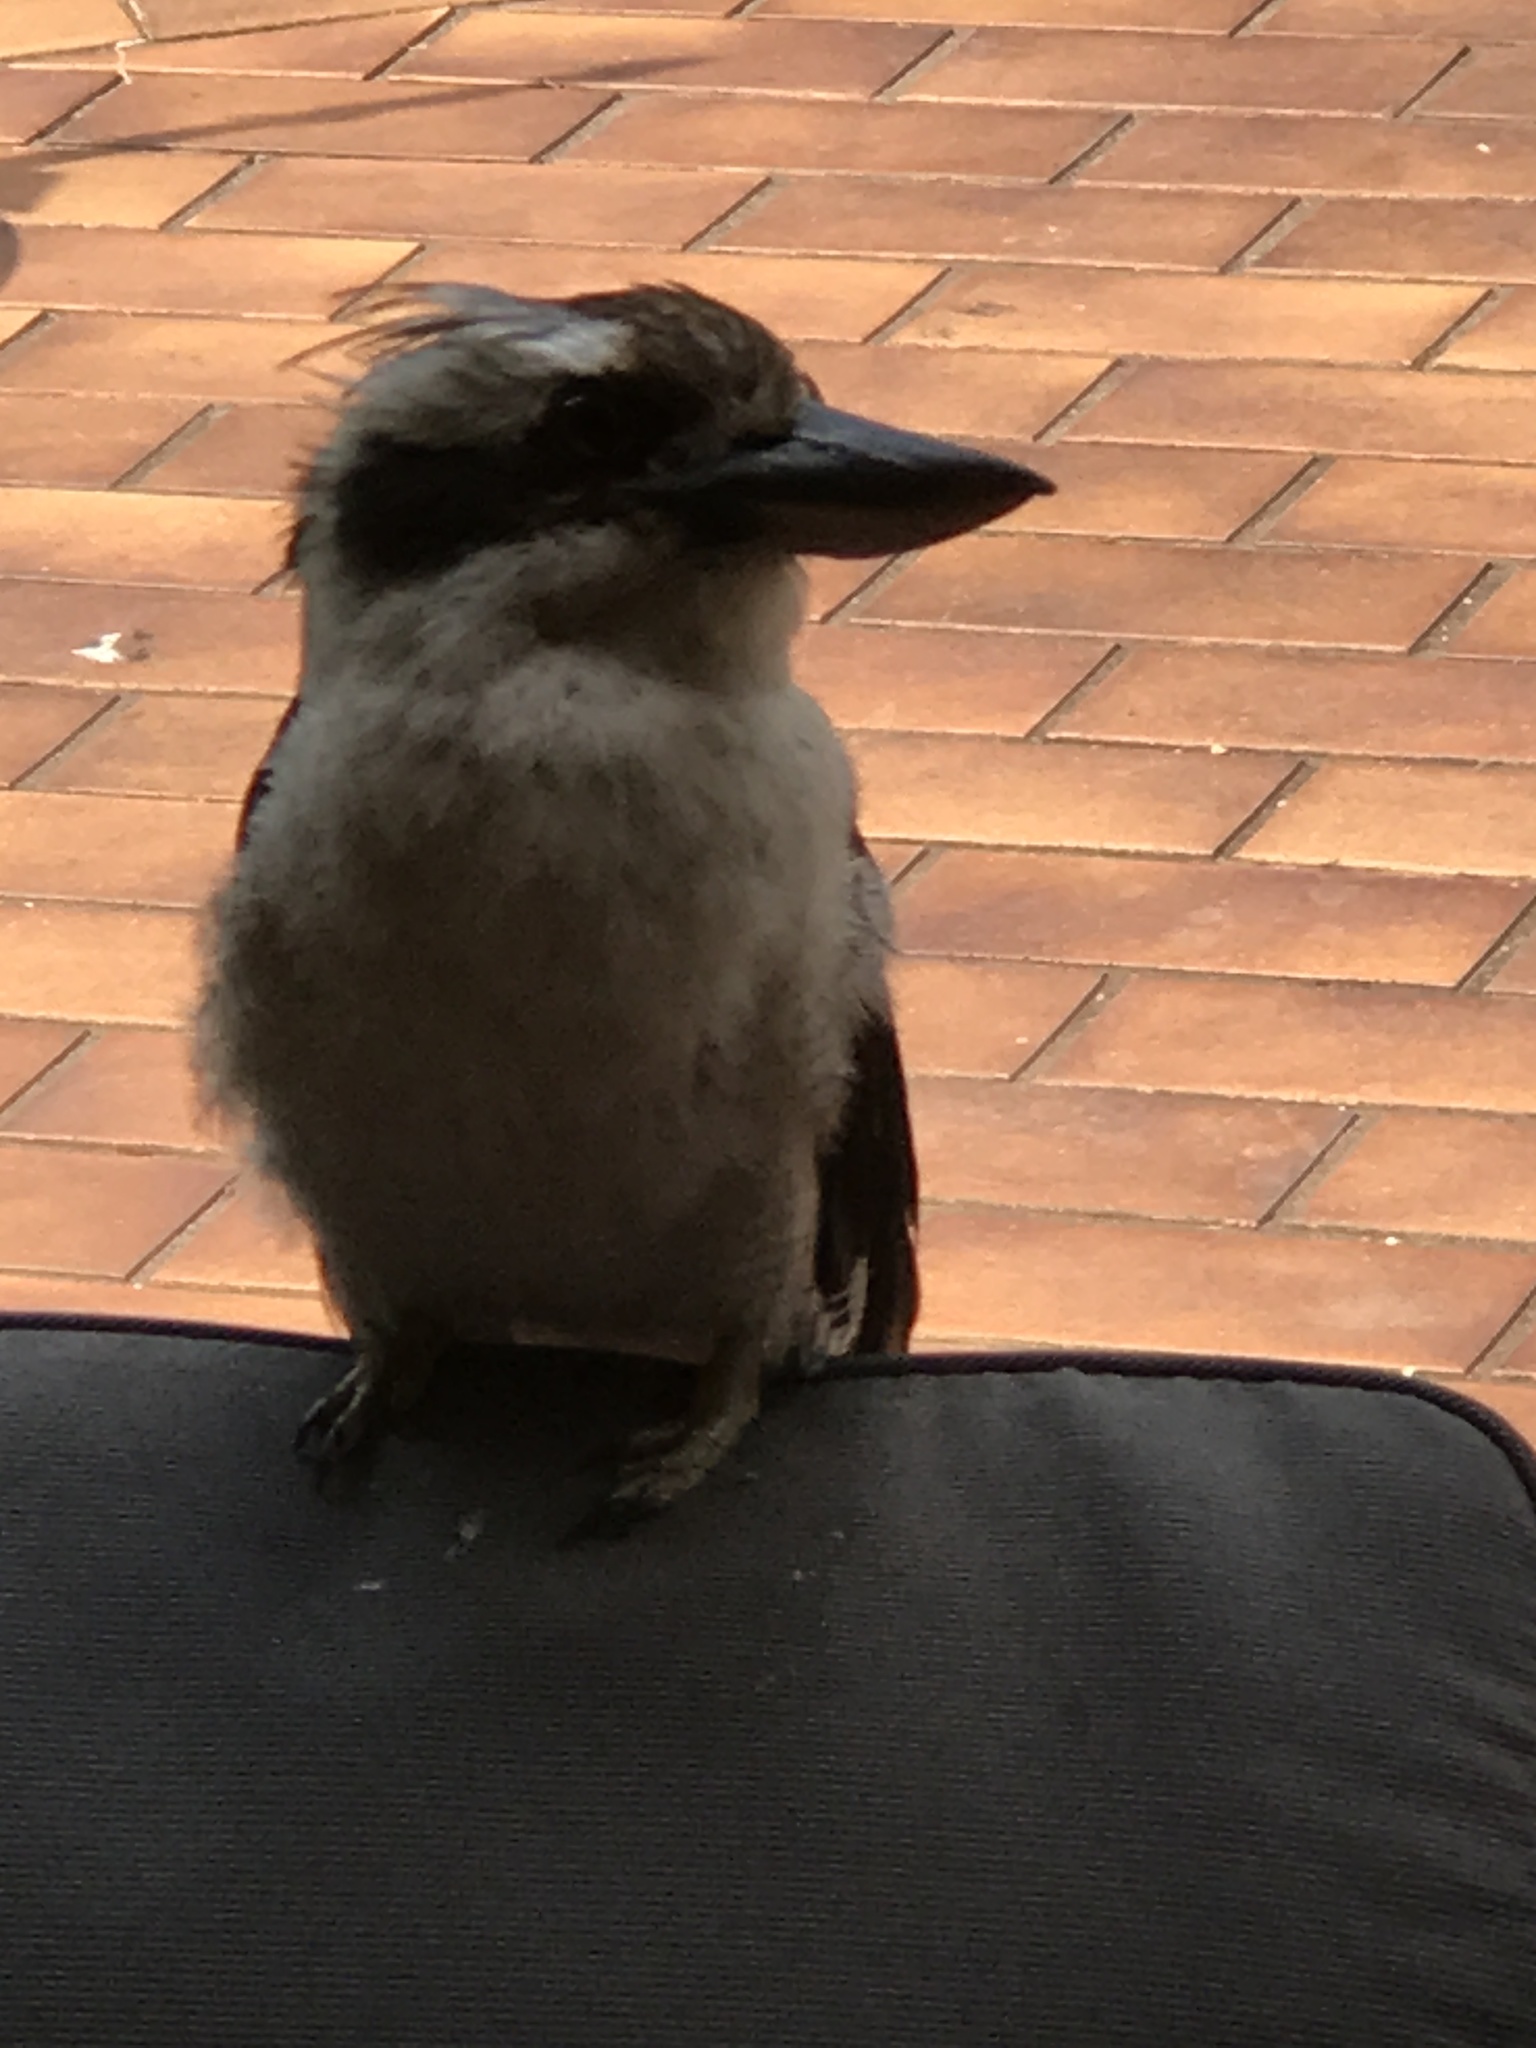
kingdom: Animalia
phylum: Chordata
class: Aves
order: Coraciiformes
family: Alcedinidae
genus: Dacelo
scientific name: Dacelo novaeguineae
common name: Laughing kookaburra
